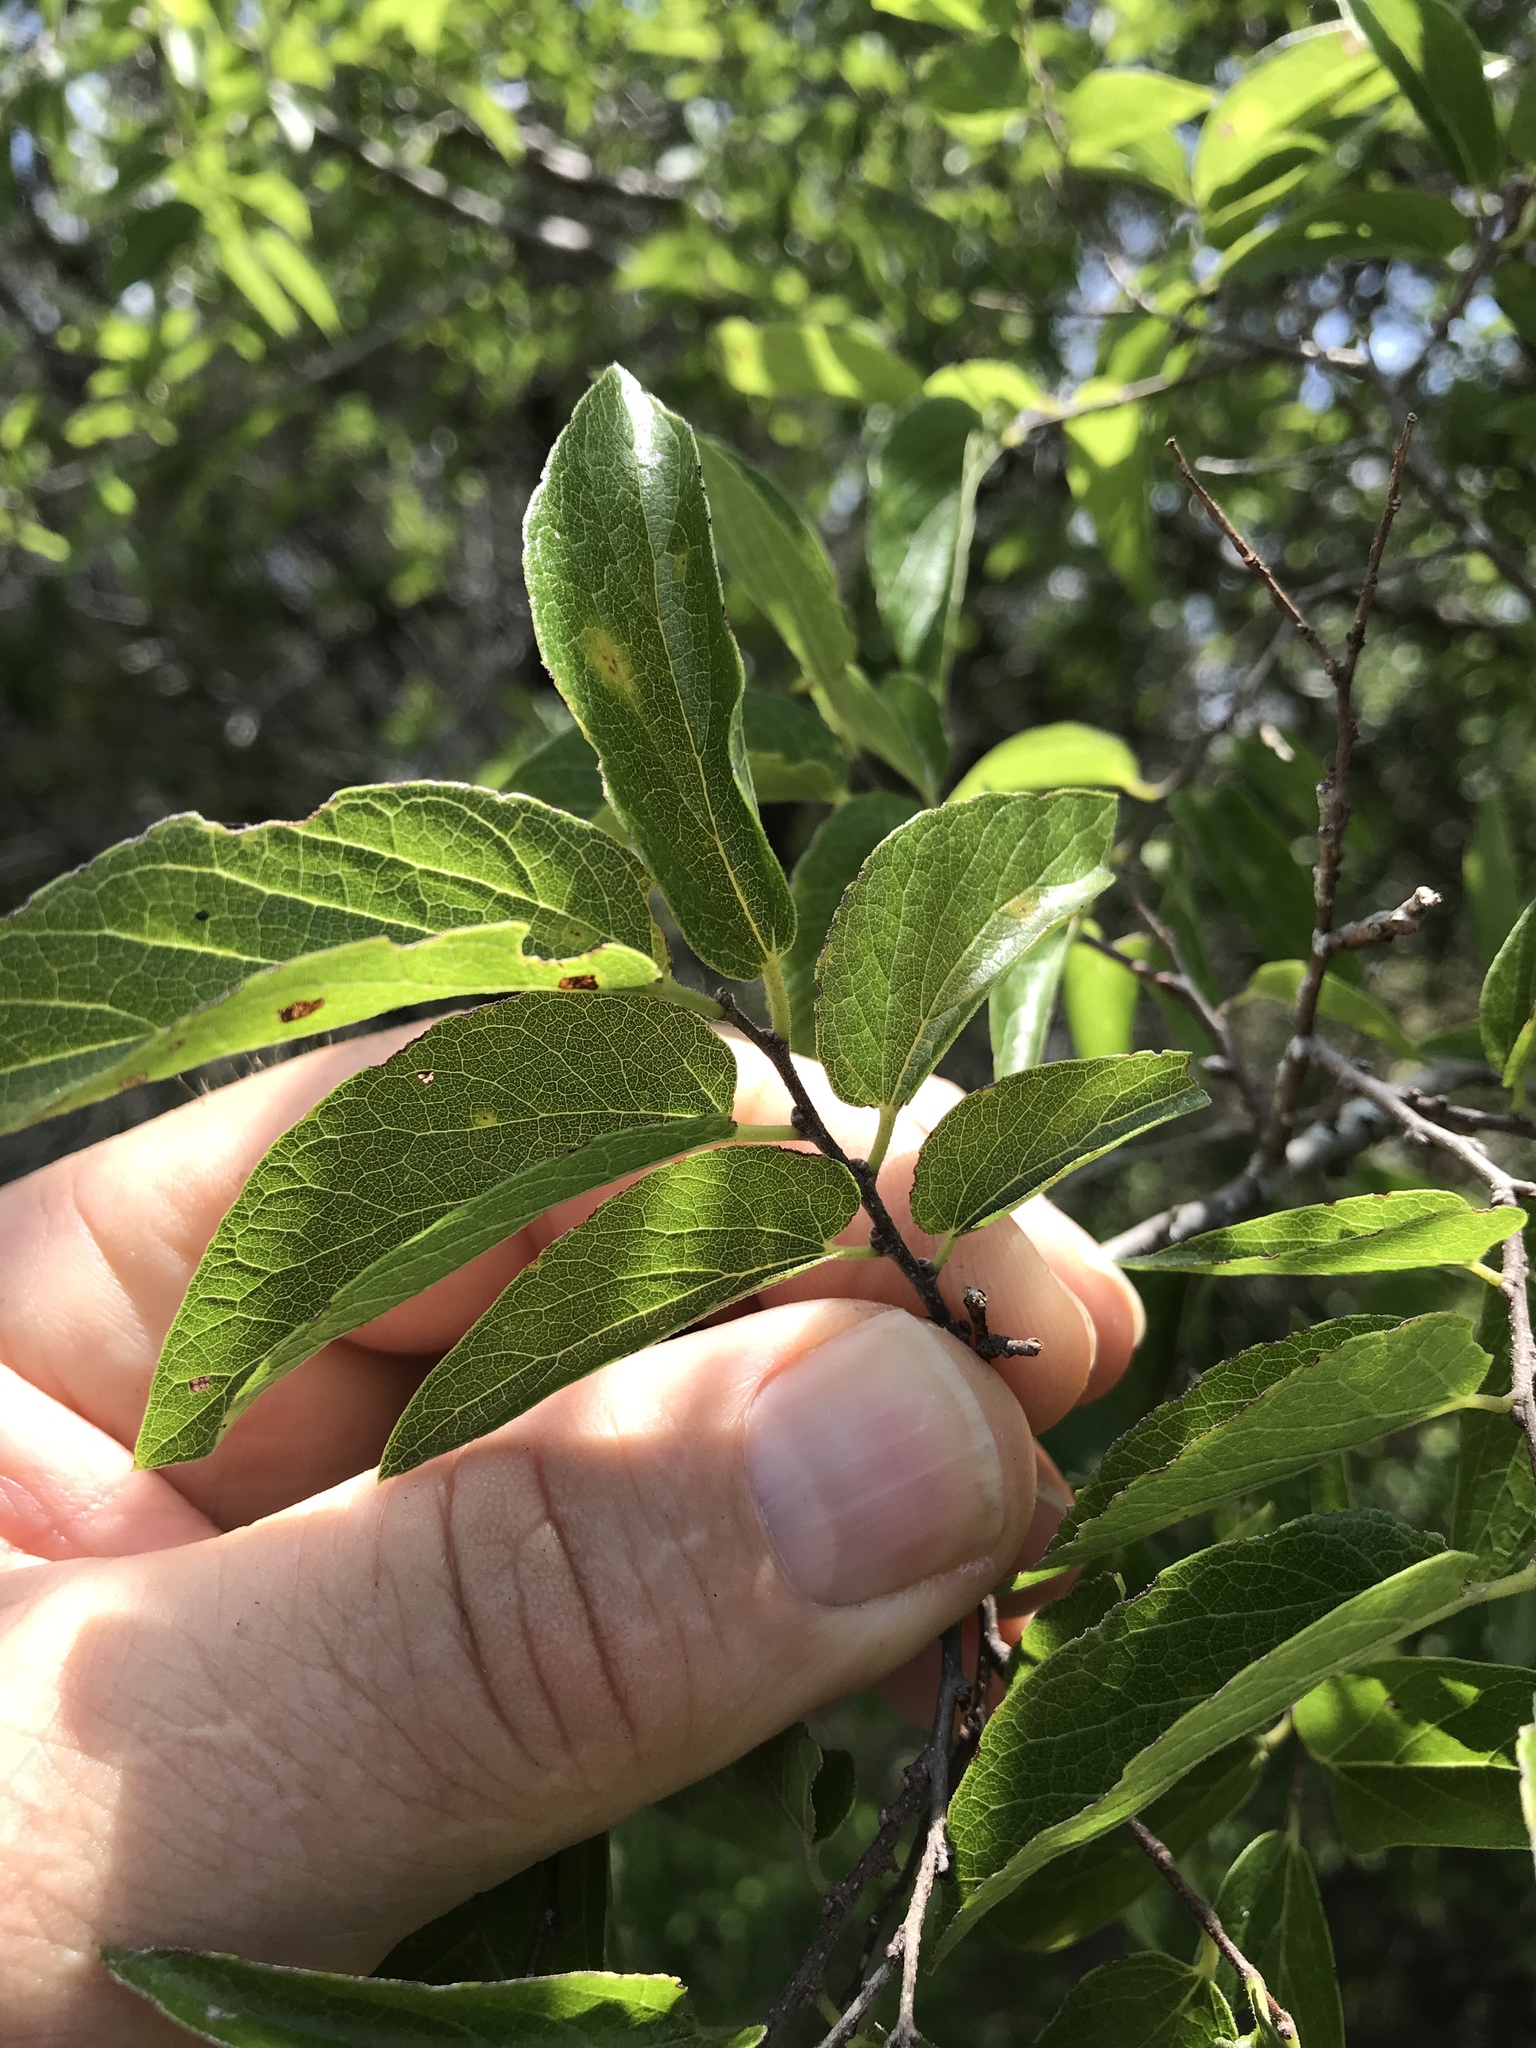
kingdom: Plantae
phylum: Tracheophyta
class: Magnoliopsida
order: Rosales
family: Cannabaceae
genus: Celtis
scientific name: Celtis laevigata
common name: Sugarberry
